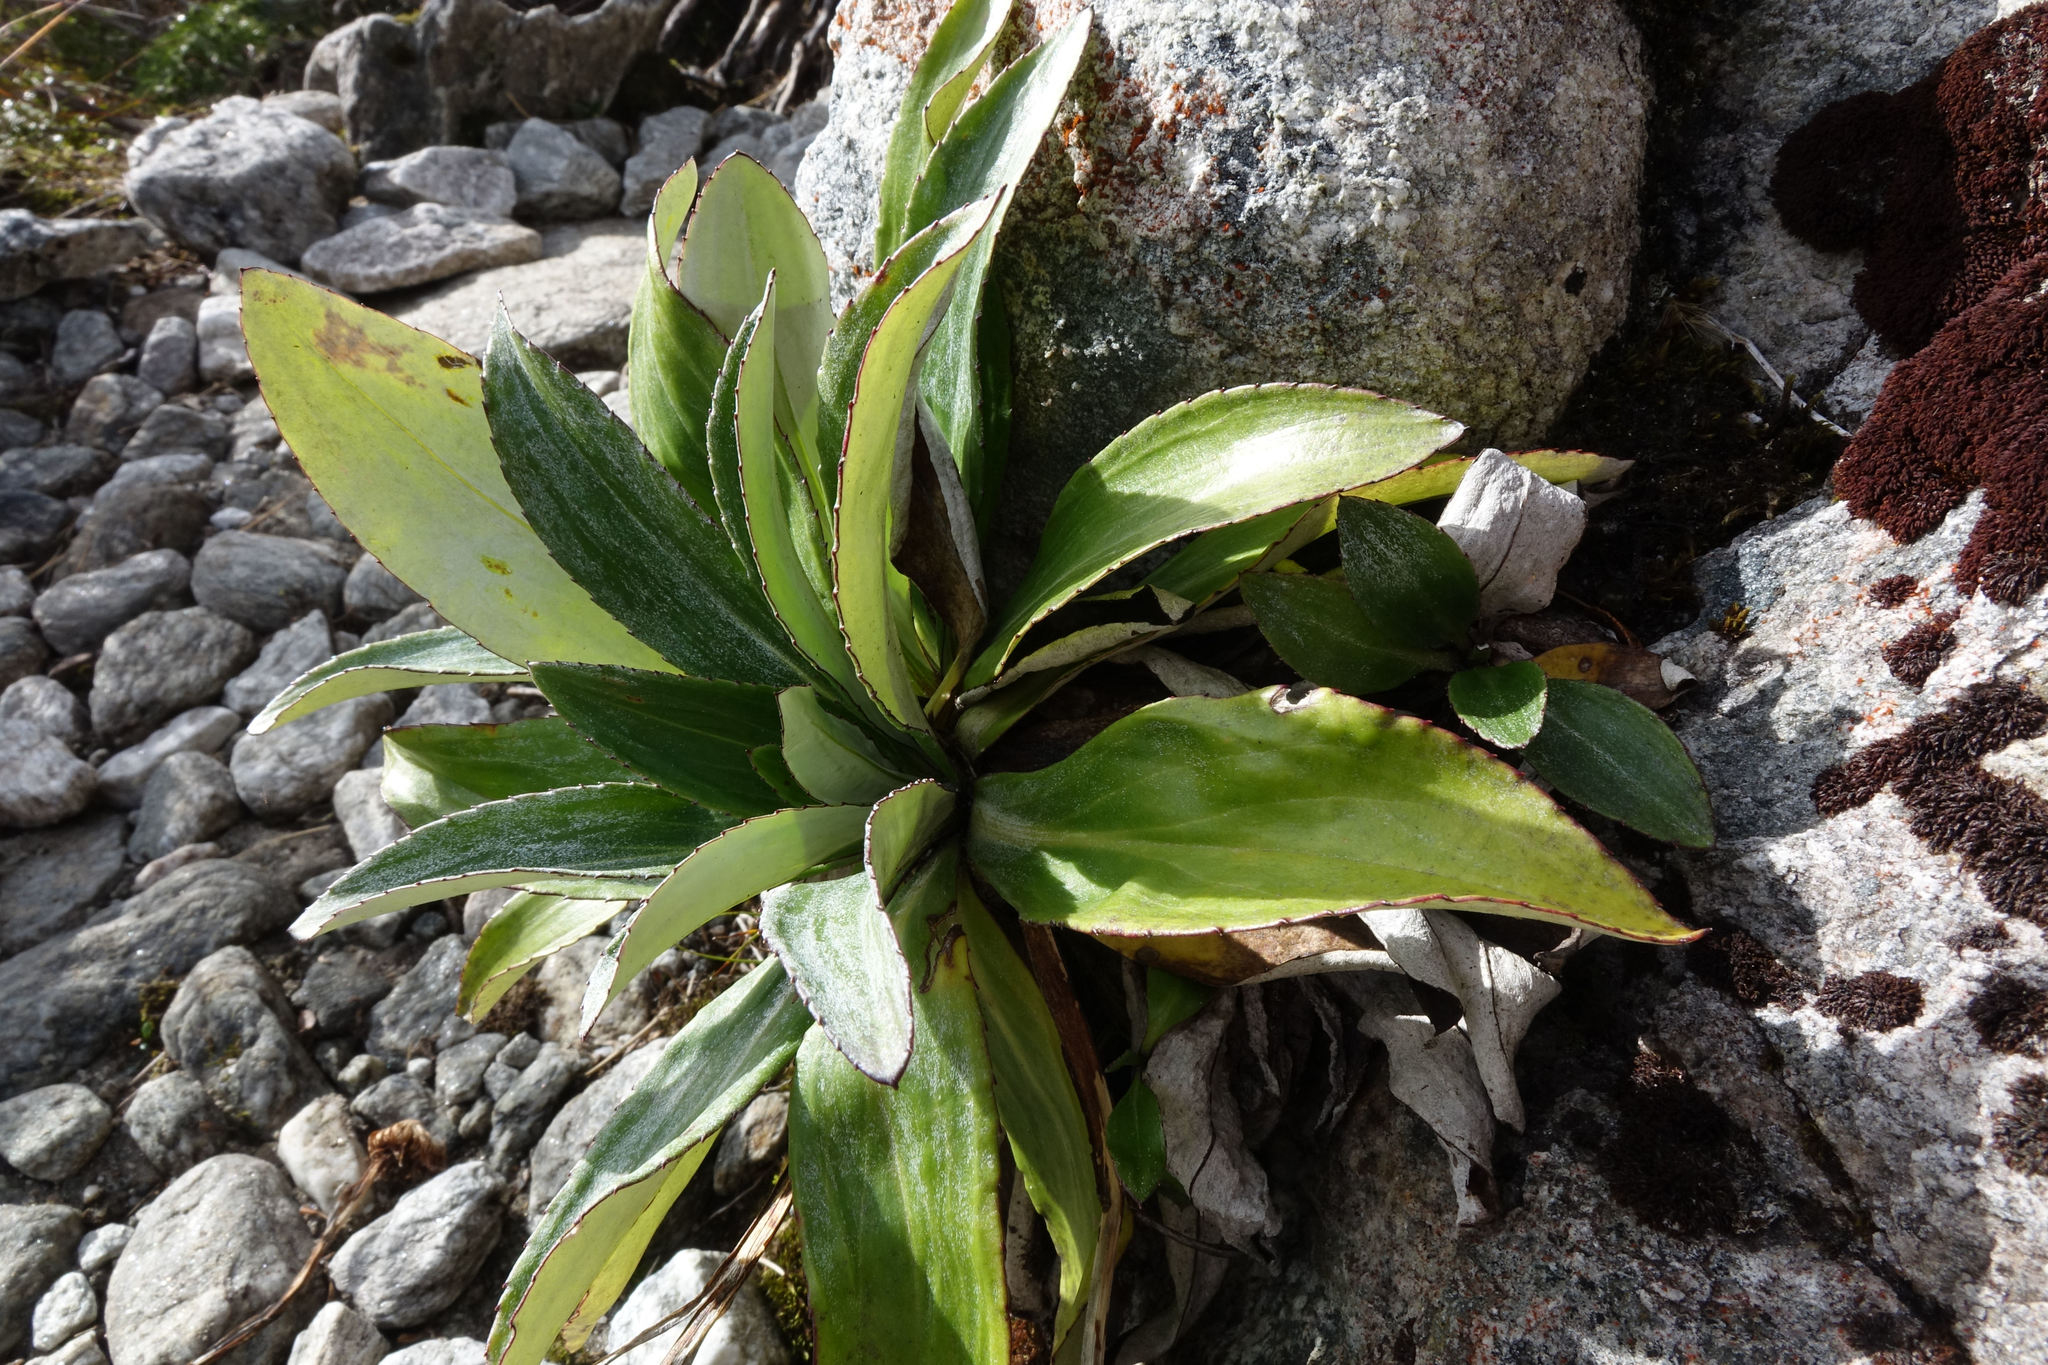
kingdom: Plantae
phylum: Tracheophyta
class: Magnoliopsida
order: Asterales
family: Asteraceae
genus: Celmisia
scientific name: Celmisia holosericea
